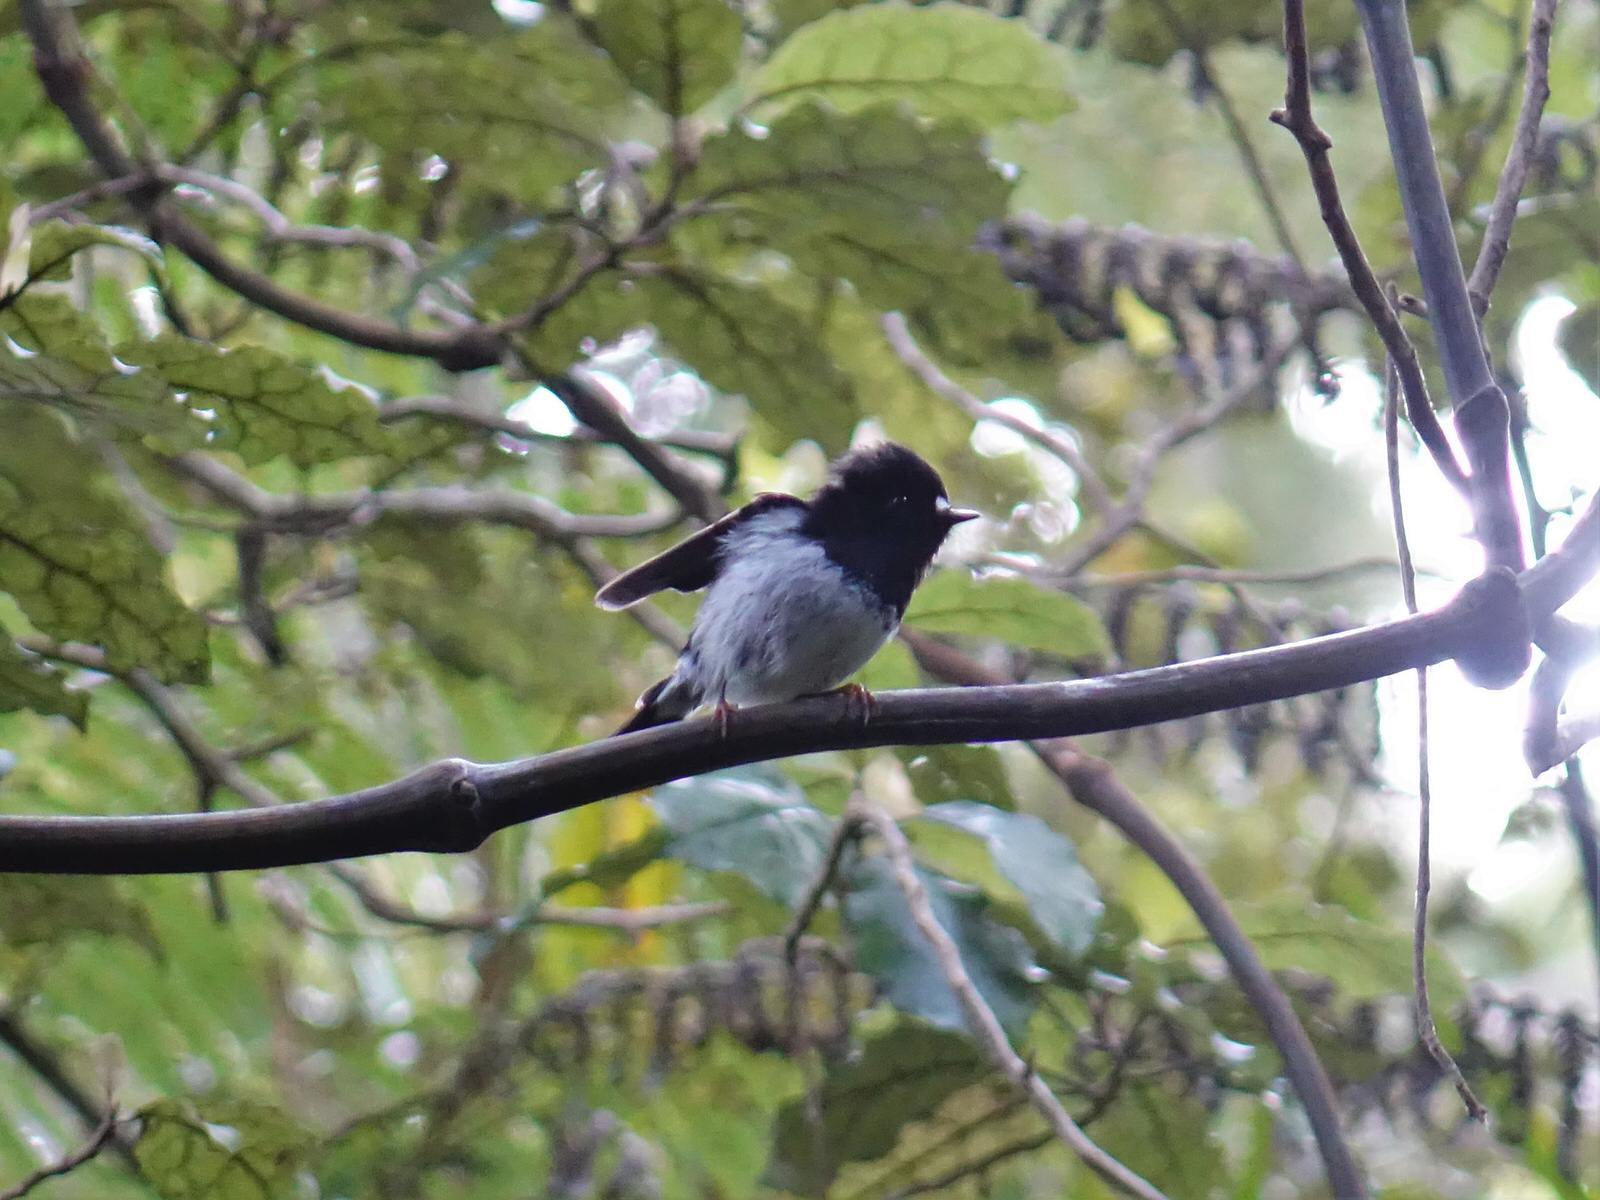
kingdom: Animalia
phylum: Chordata
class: Aves
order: Passeriformes
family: Petroicidae
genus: Petroica
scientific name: Petroica macrocephala
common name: Tomtit
